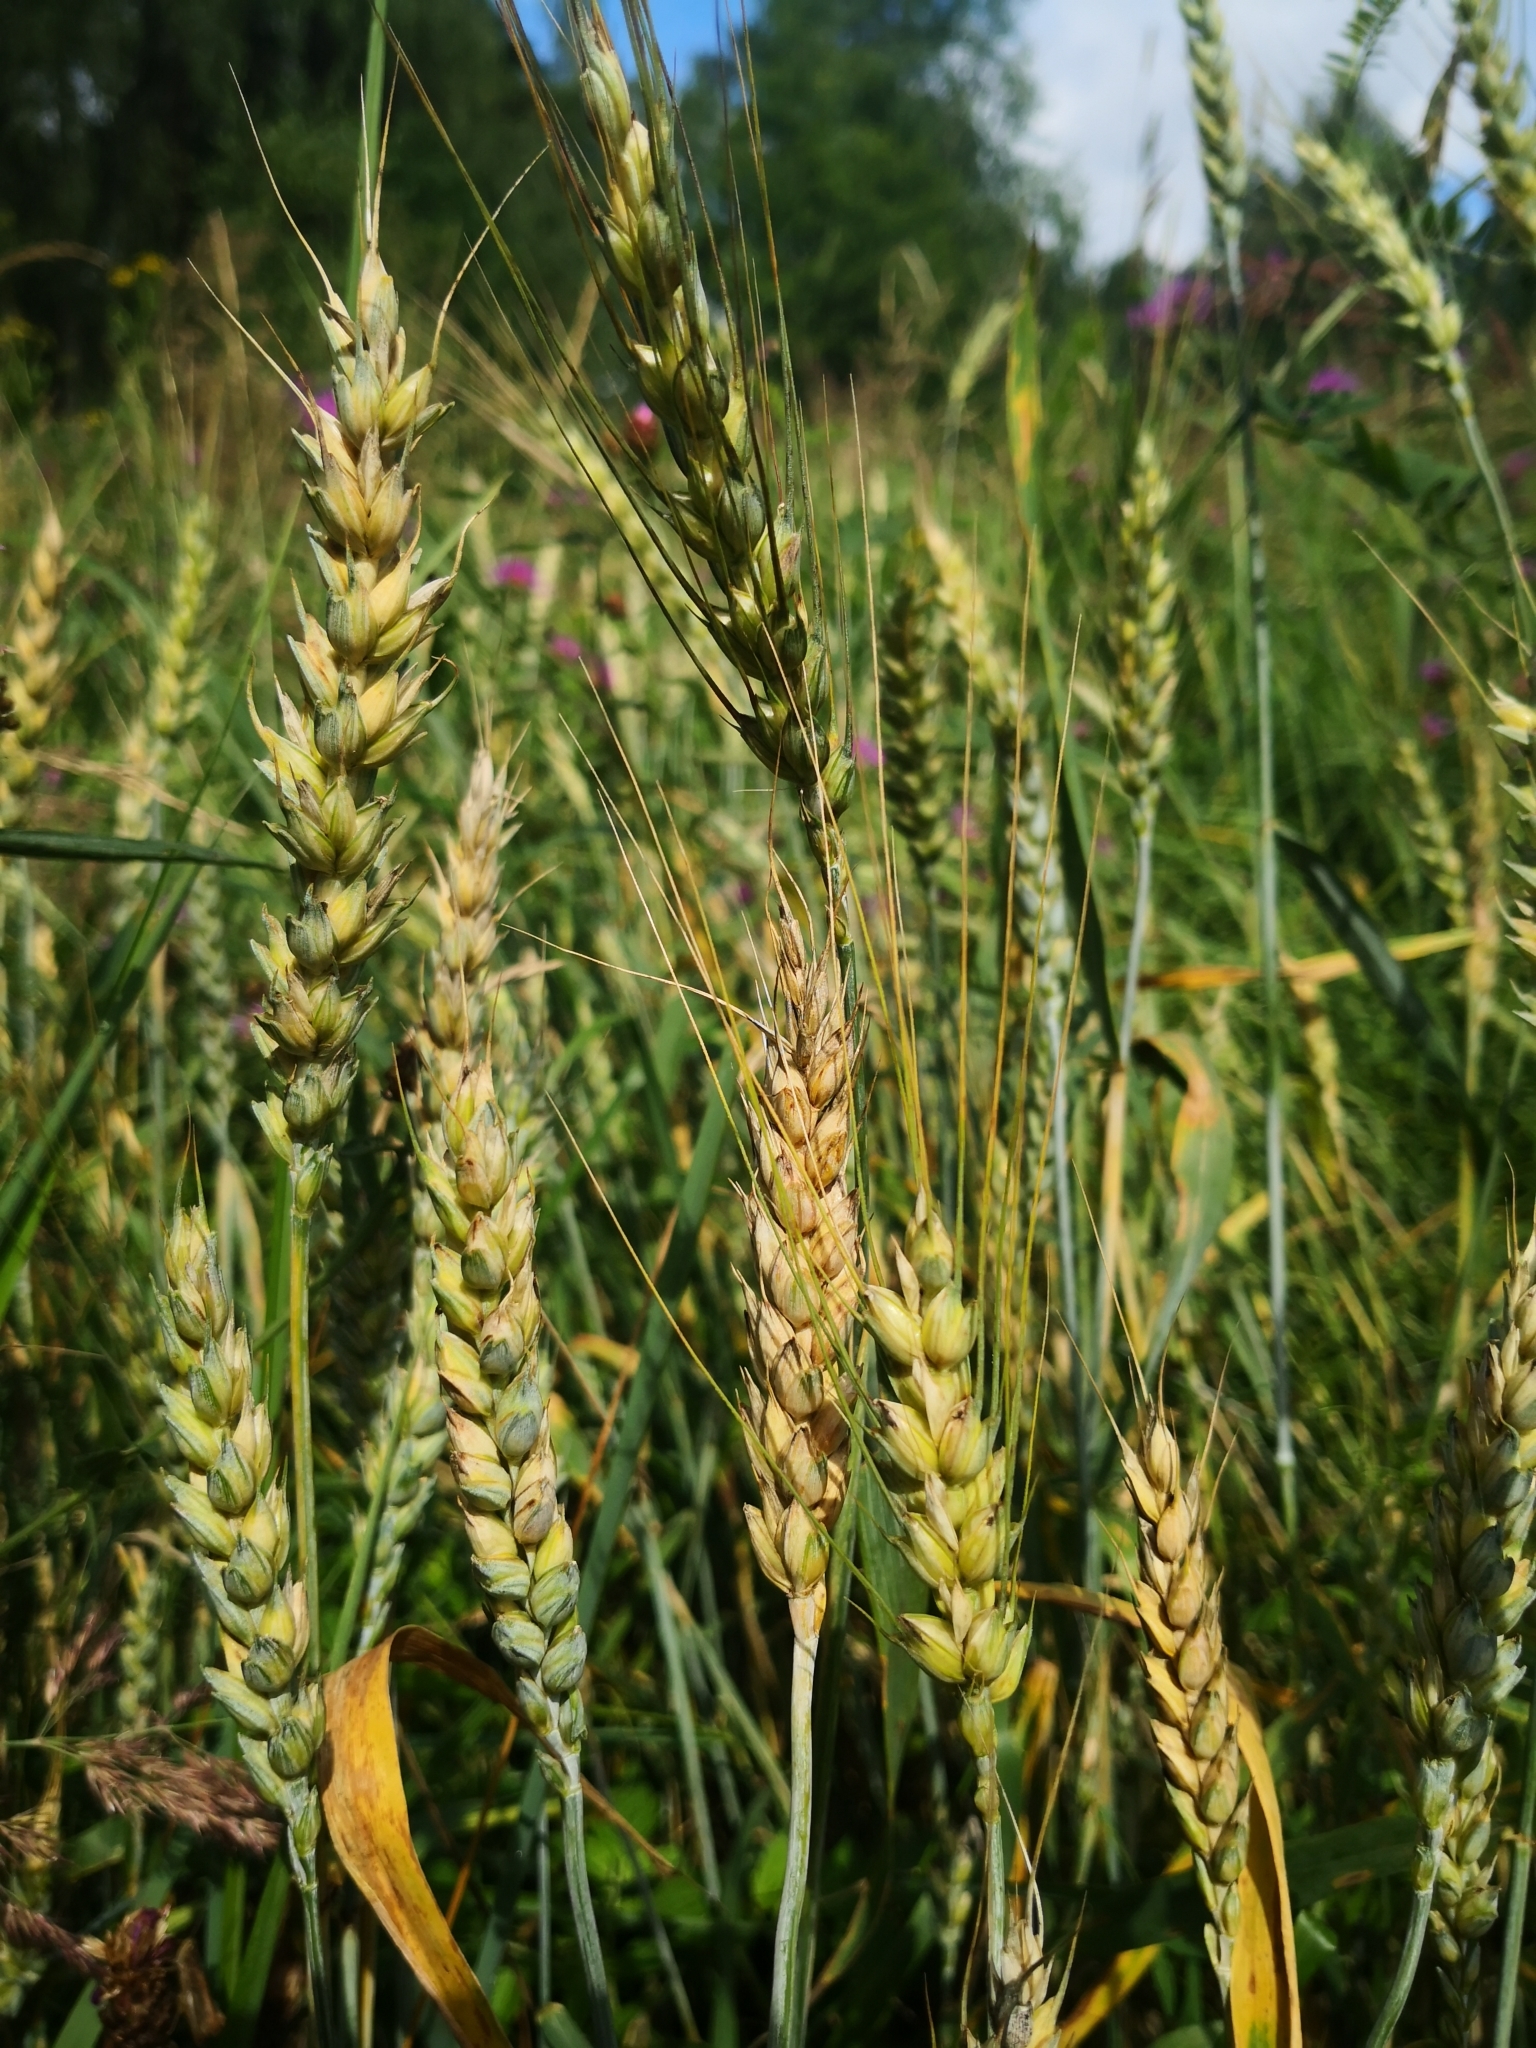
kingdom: Plantae
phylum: Tracheophyta
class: Liliopsida
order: Poales
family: Poaceae
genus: Triticum
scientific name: Triticum aestivum
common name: Common wheat
